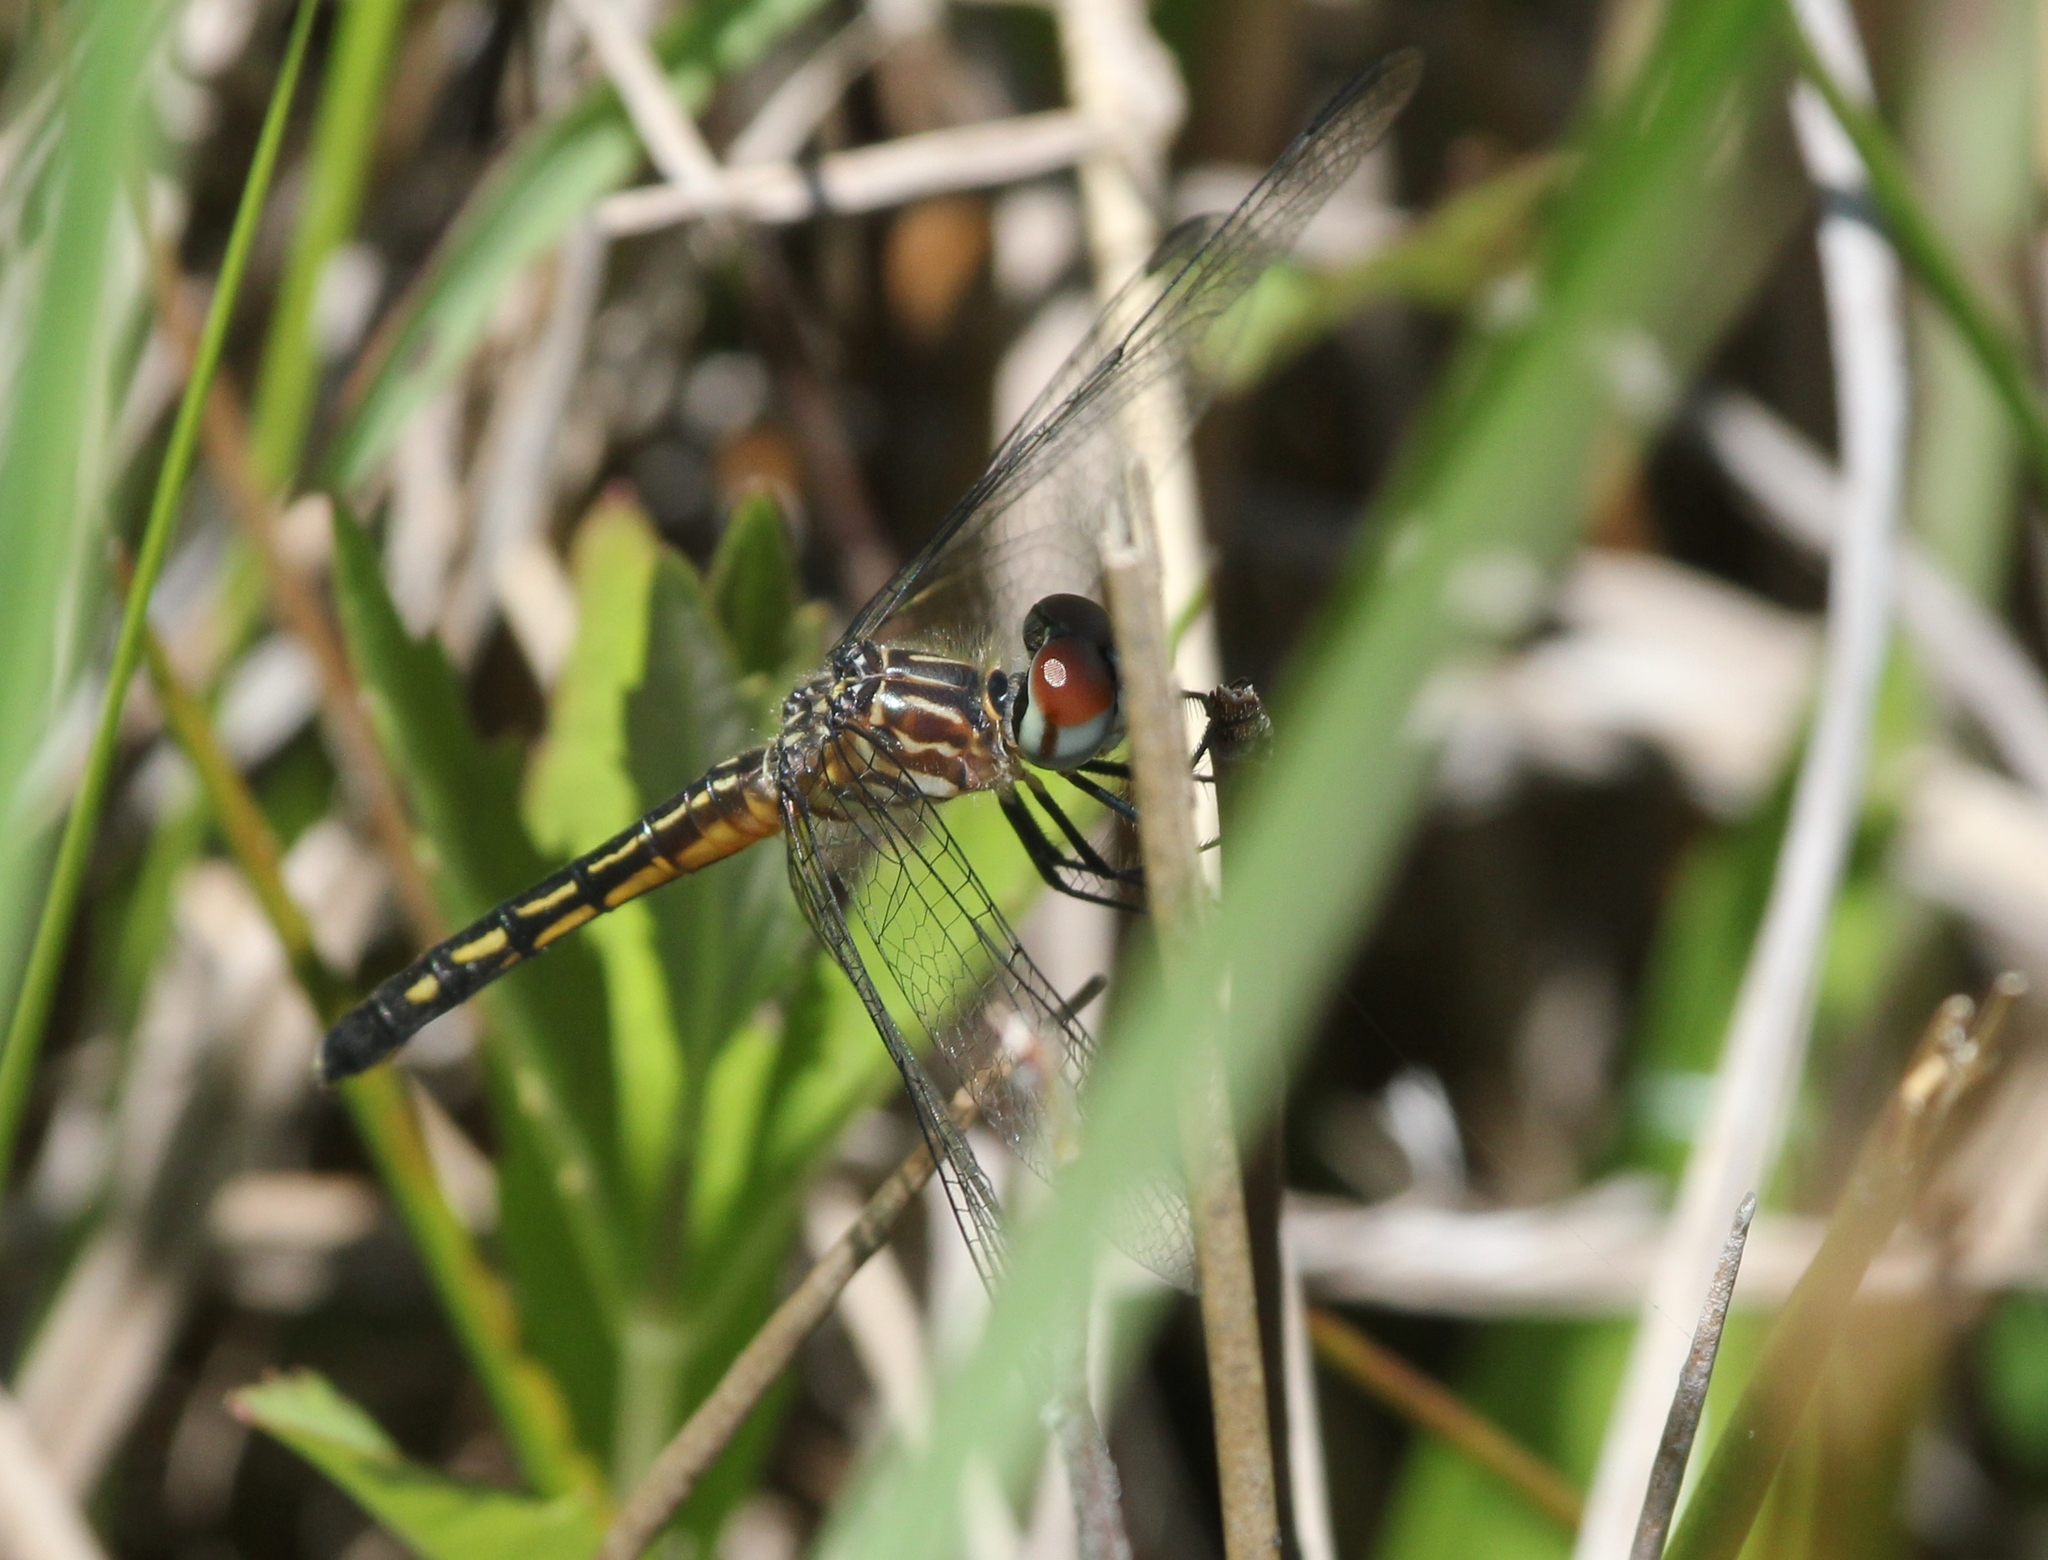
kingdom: Animalia
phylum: Arthropoda
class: Insecta
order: Odonata
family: Libellulidae
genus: Pachydiplax
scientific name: Pachydiplax longipennis
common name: Blue dasher
